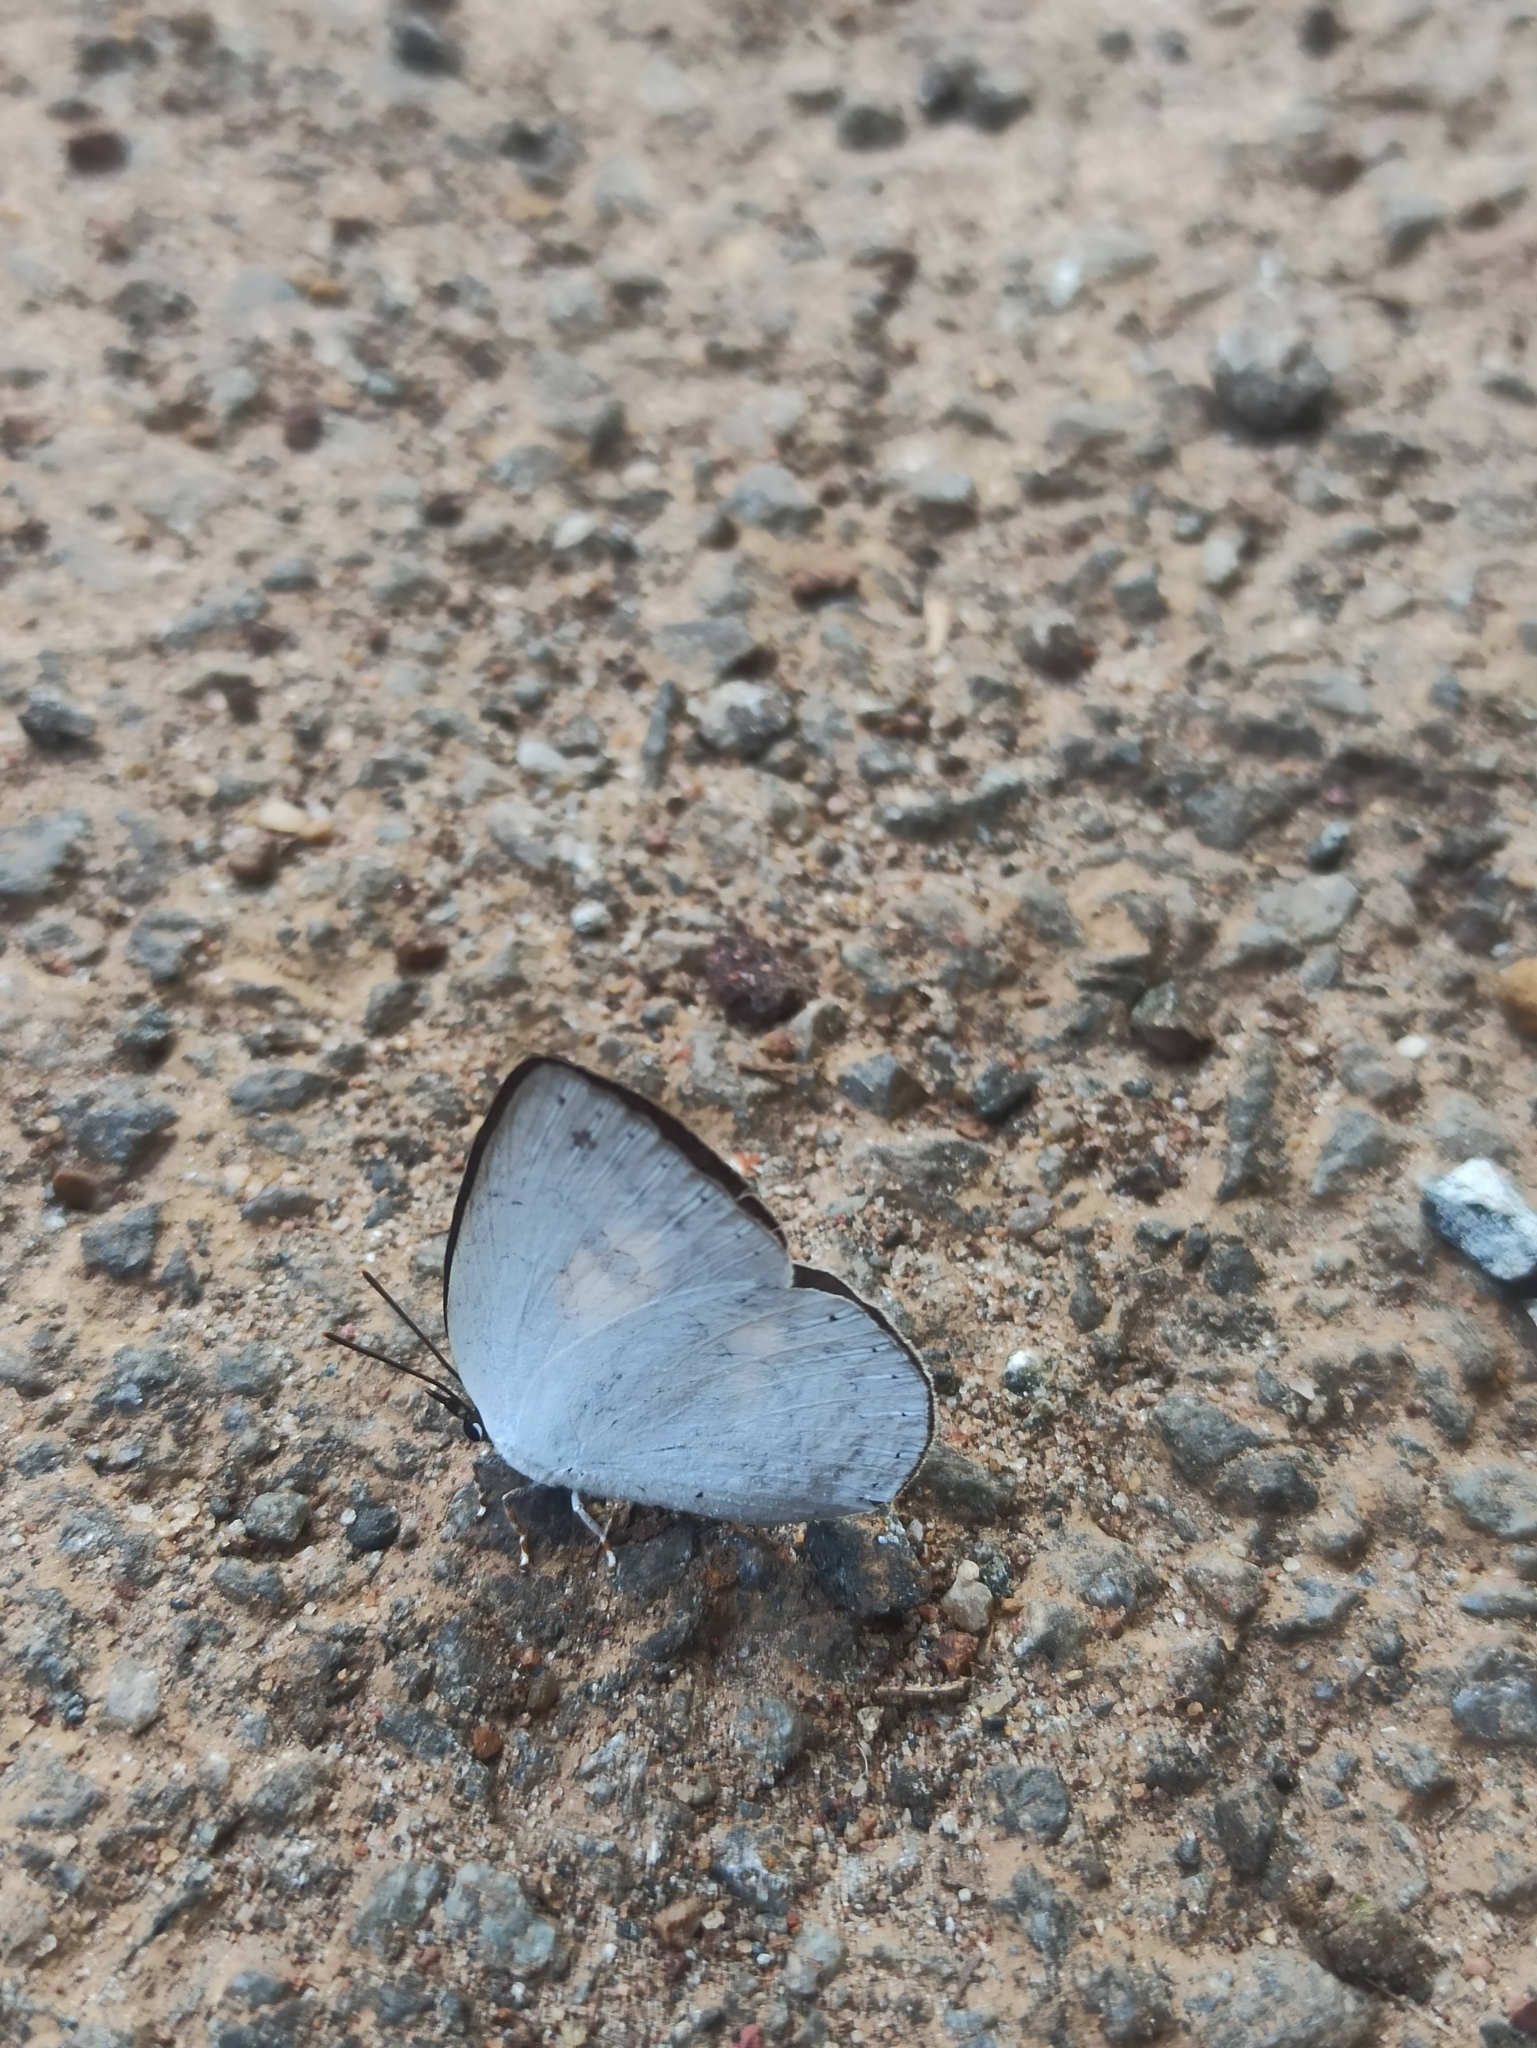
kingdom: Animalia
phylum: Arthropoda
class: Insecta
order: Lepidoptera
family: Lycaenidae
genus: Curetis
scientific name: Curetis thetis
